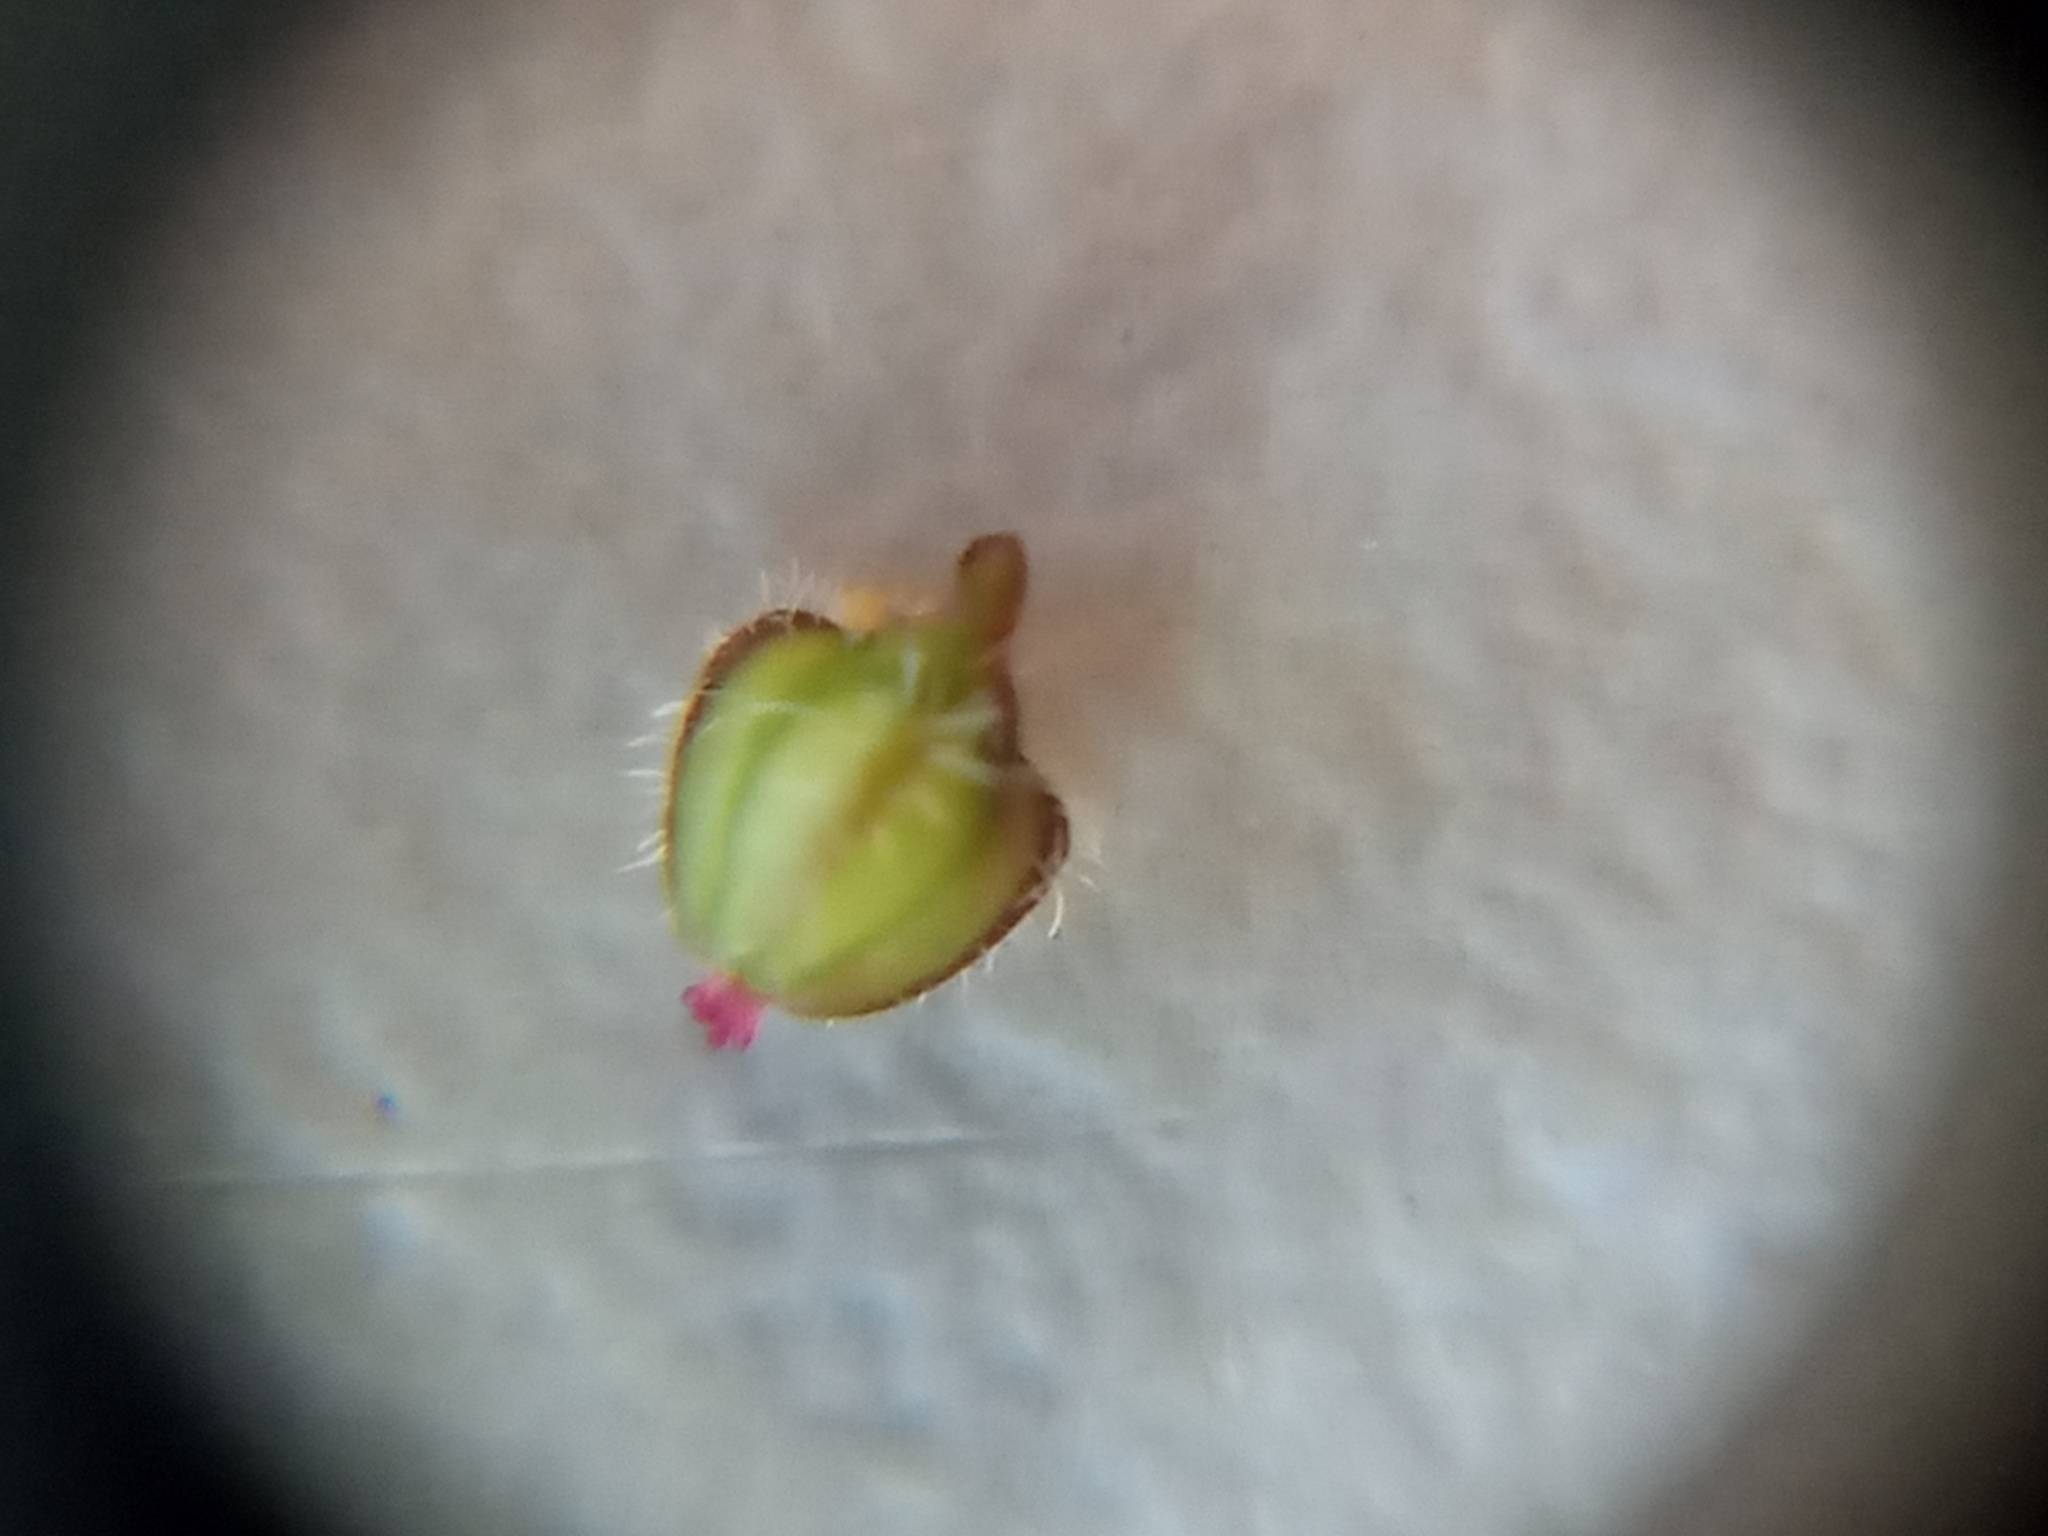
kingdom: Plantae
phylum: Tracheophyta
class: Magnoliopsida
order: Malpighiales
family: Euphorbiaceae
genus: Euphorbia
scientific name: Euphorbia prostrata
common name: Prostrate sandmat
